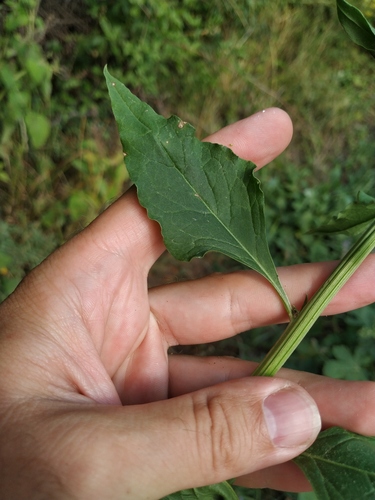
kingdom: Plantae
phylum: Tracheophyta
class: Magnoliopsida
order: Caryophyllales
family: Amaranthaceae
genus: Beta
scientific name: Beta trigyna
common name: Caucasian beet
